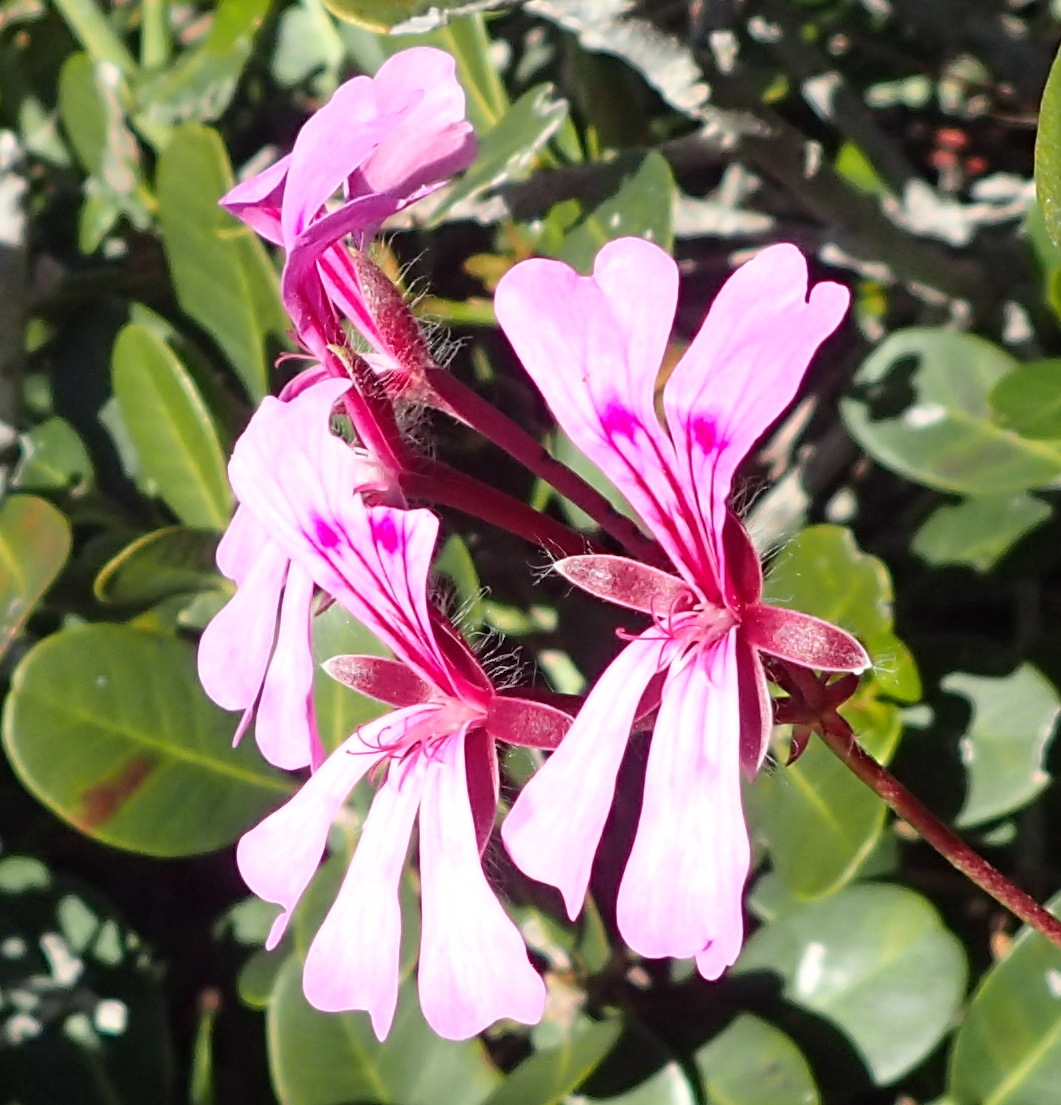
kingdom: Plantae
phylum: Tracheophyta
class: Magnoliopsida
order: Geraniales
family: Geraniaceae
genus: Pelargonium
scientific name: Pelargonium peltatum
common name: Ivyleaf geranium
